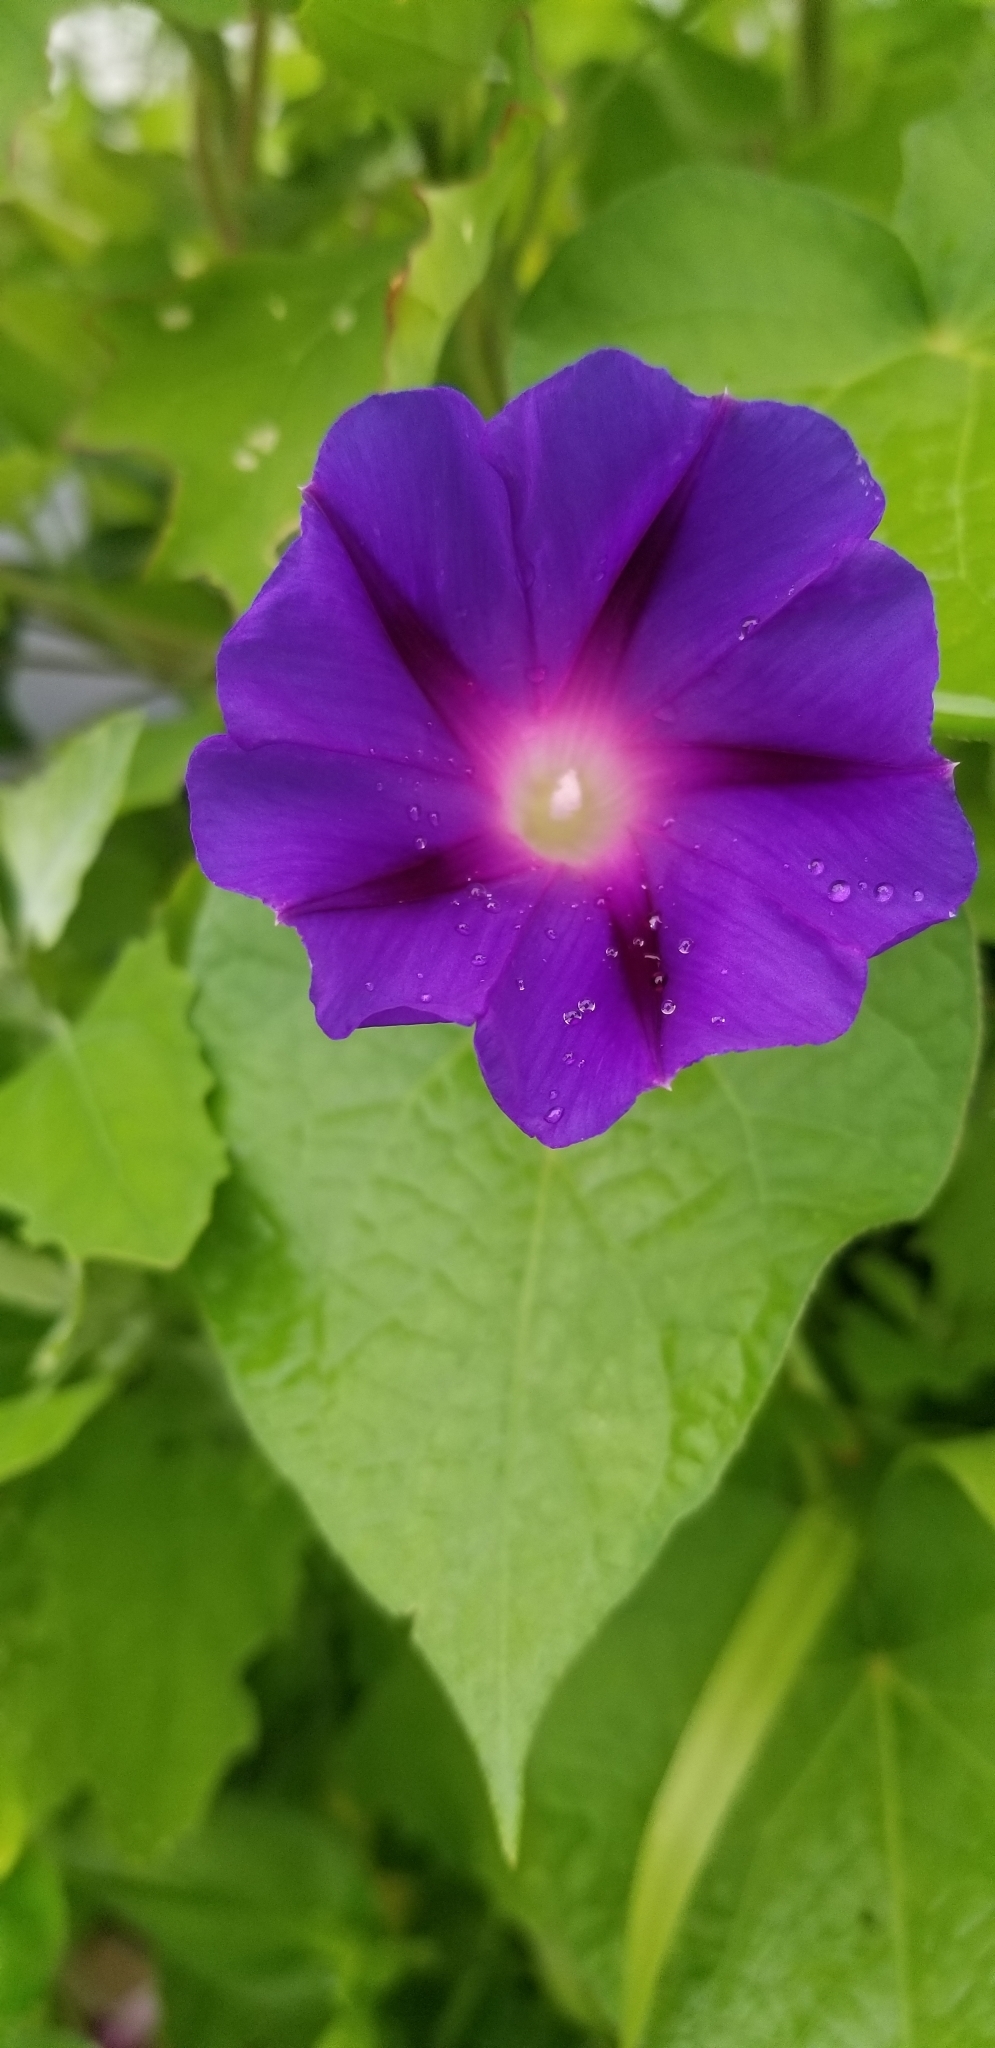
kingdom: Plantae
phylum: Tracheophyta
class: Magnoliopsida
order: Solanales
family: Convolvulaceae
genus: Ipomoea
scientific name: Ipomoea purpurea
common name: Common morning-glory
